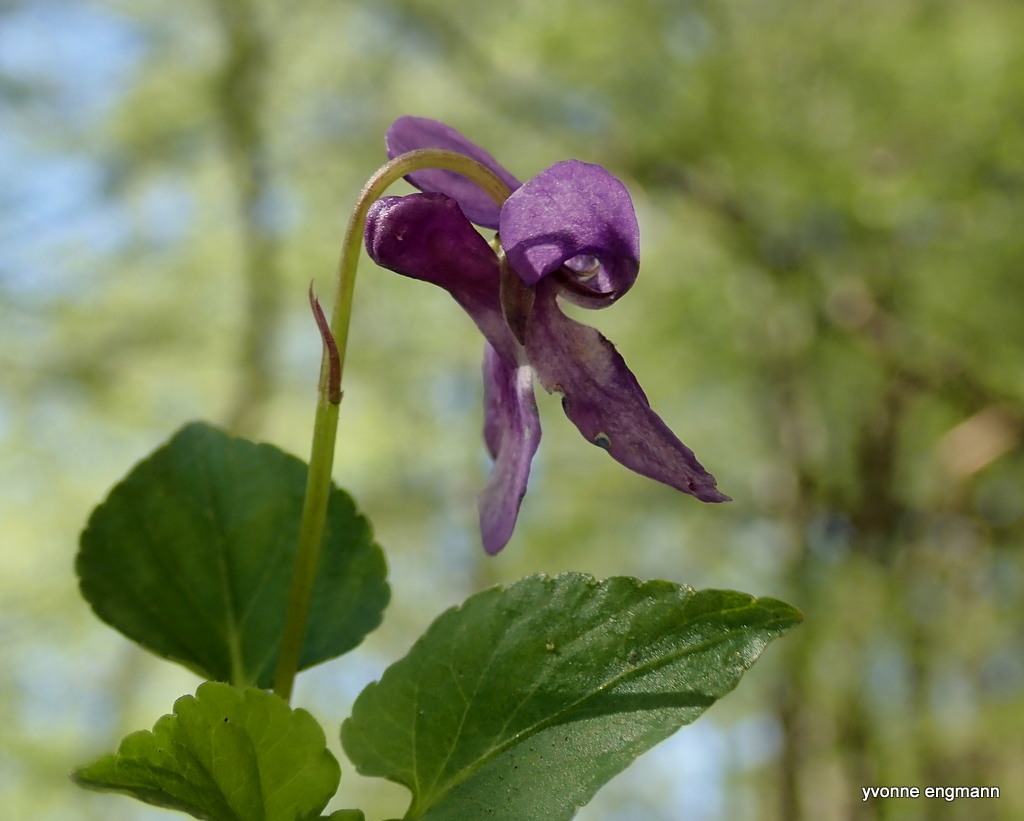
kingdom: Plantae
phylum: Tracheophyta
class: Magnoliopsida
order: Malpighiales
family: Violaceae
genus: Viola
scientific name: Viola reichenbachiana
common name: Early dog-violet
